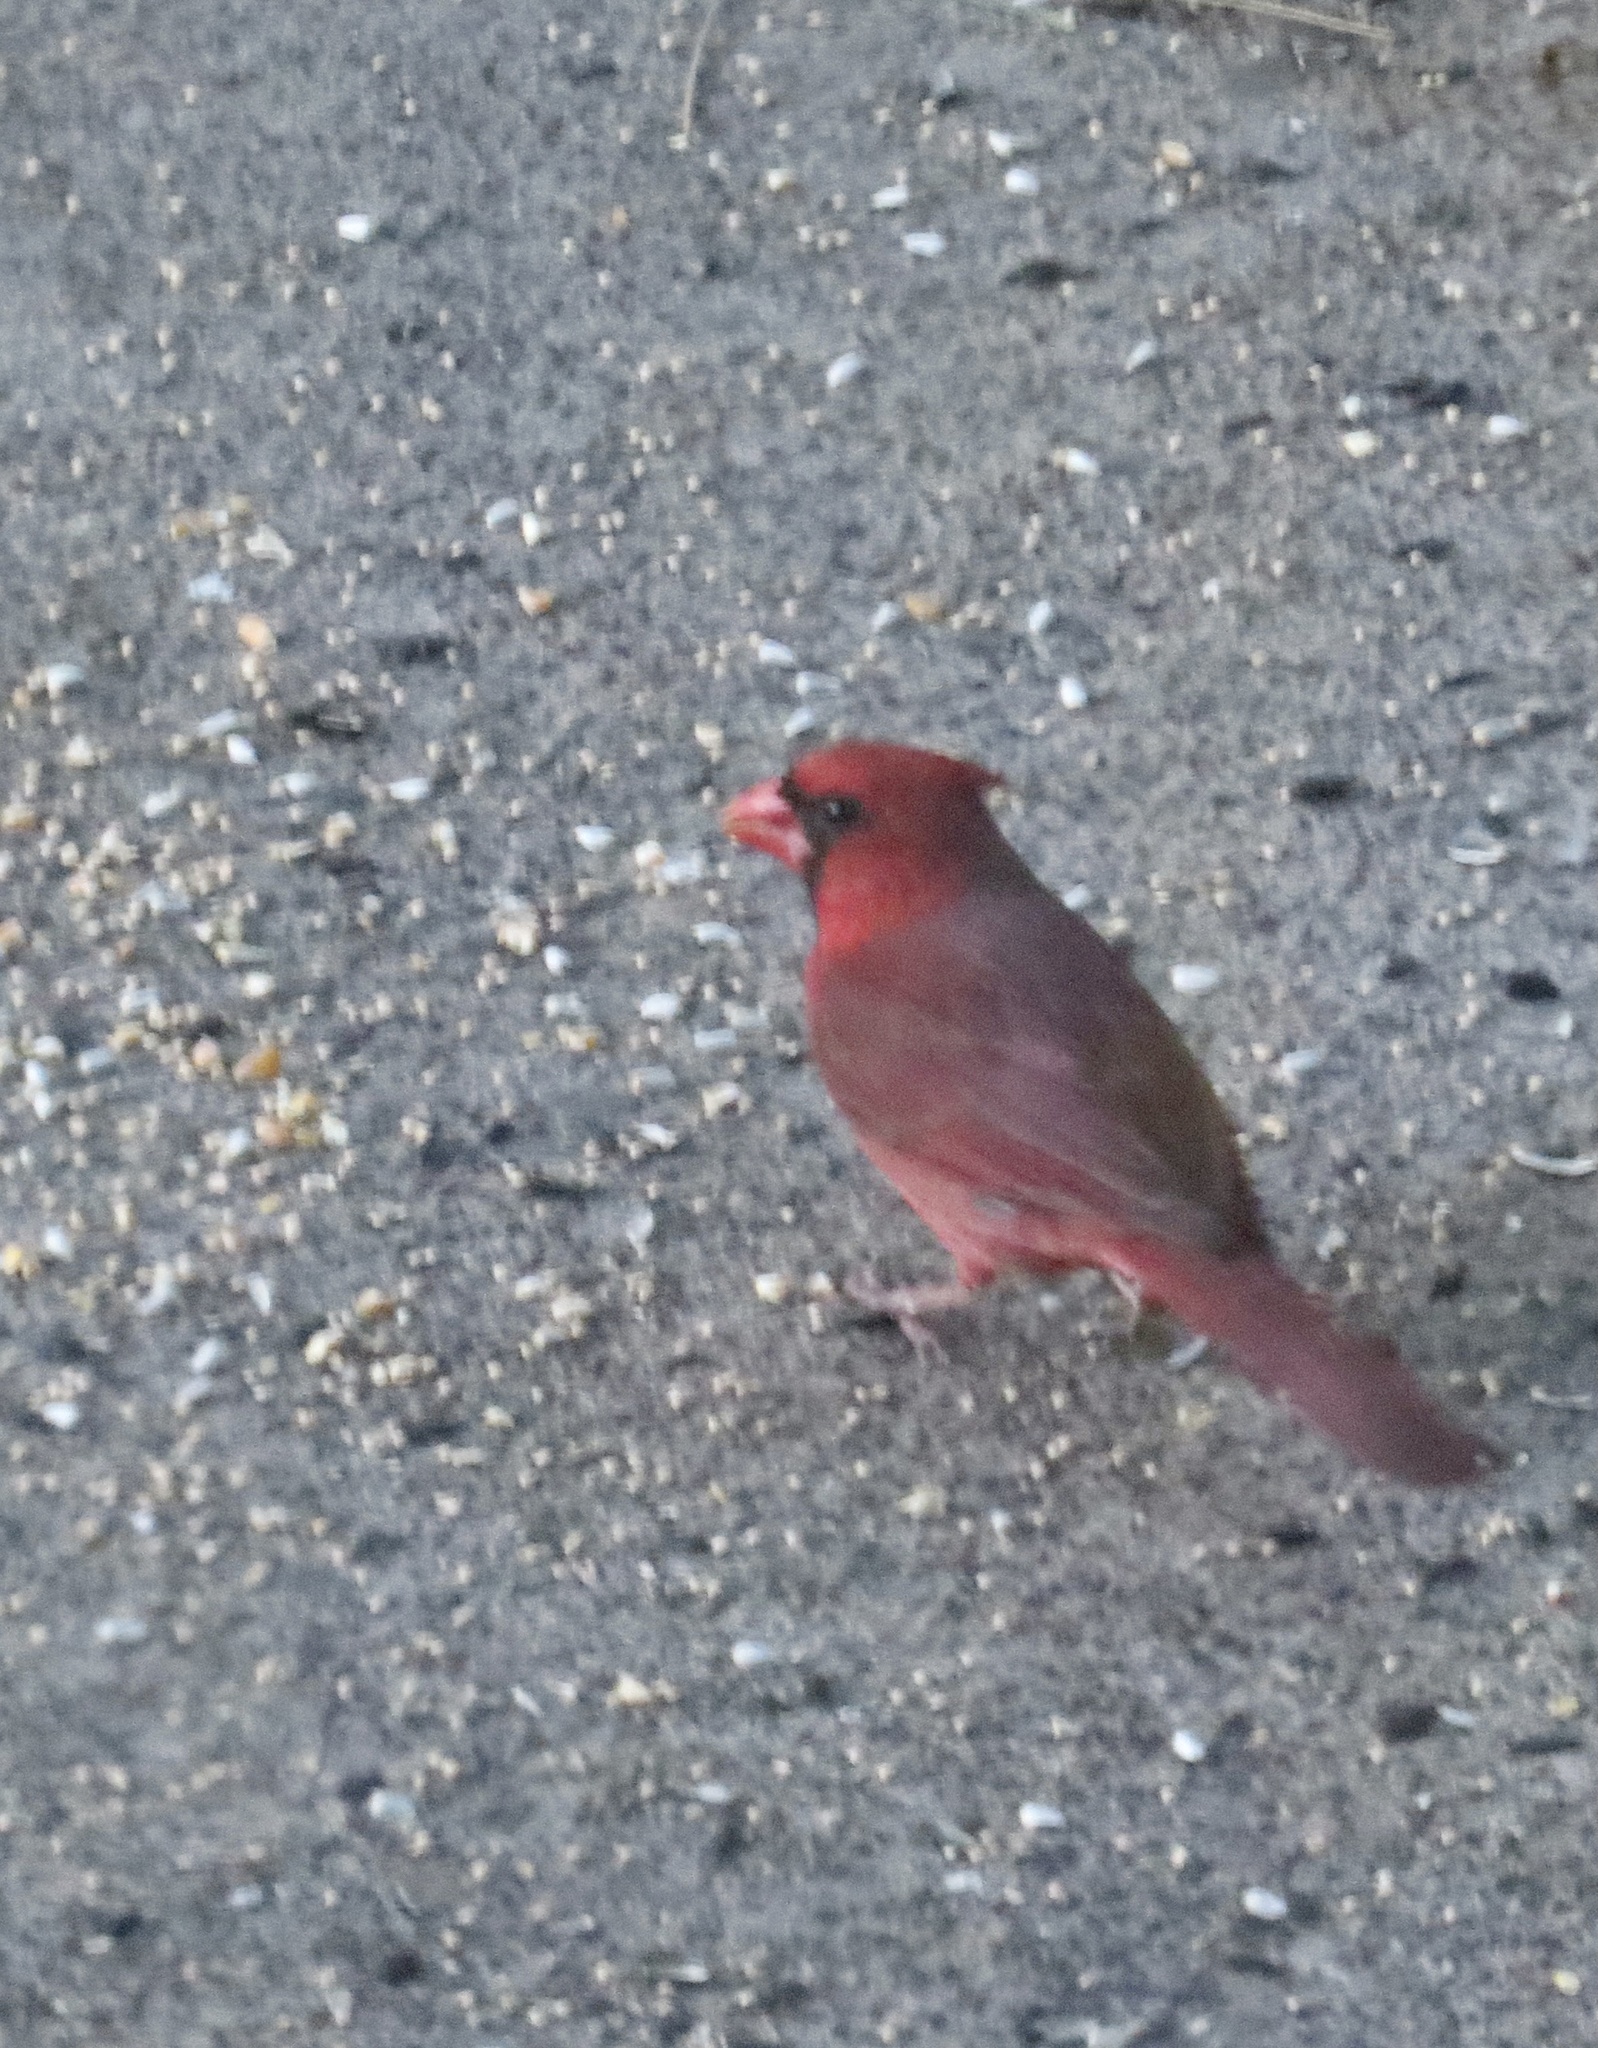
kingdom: Animalia
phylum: Chordata
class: Aves
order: Passeriformes
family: Cardinalidae
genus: Cardinalis
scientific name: Cardinalis cardinalis
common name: Northern cardinal
